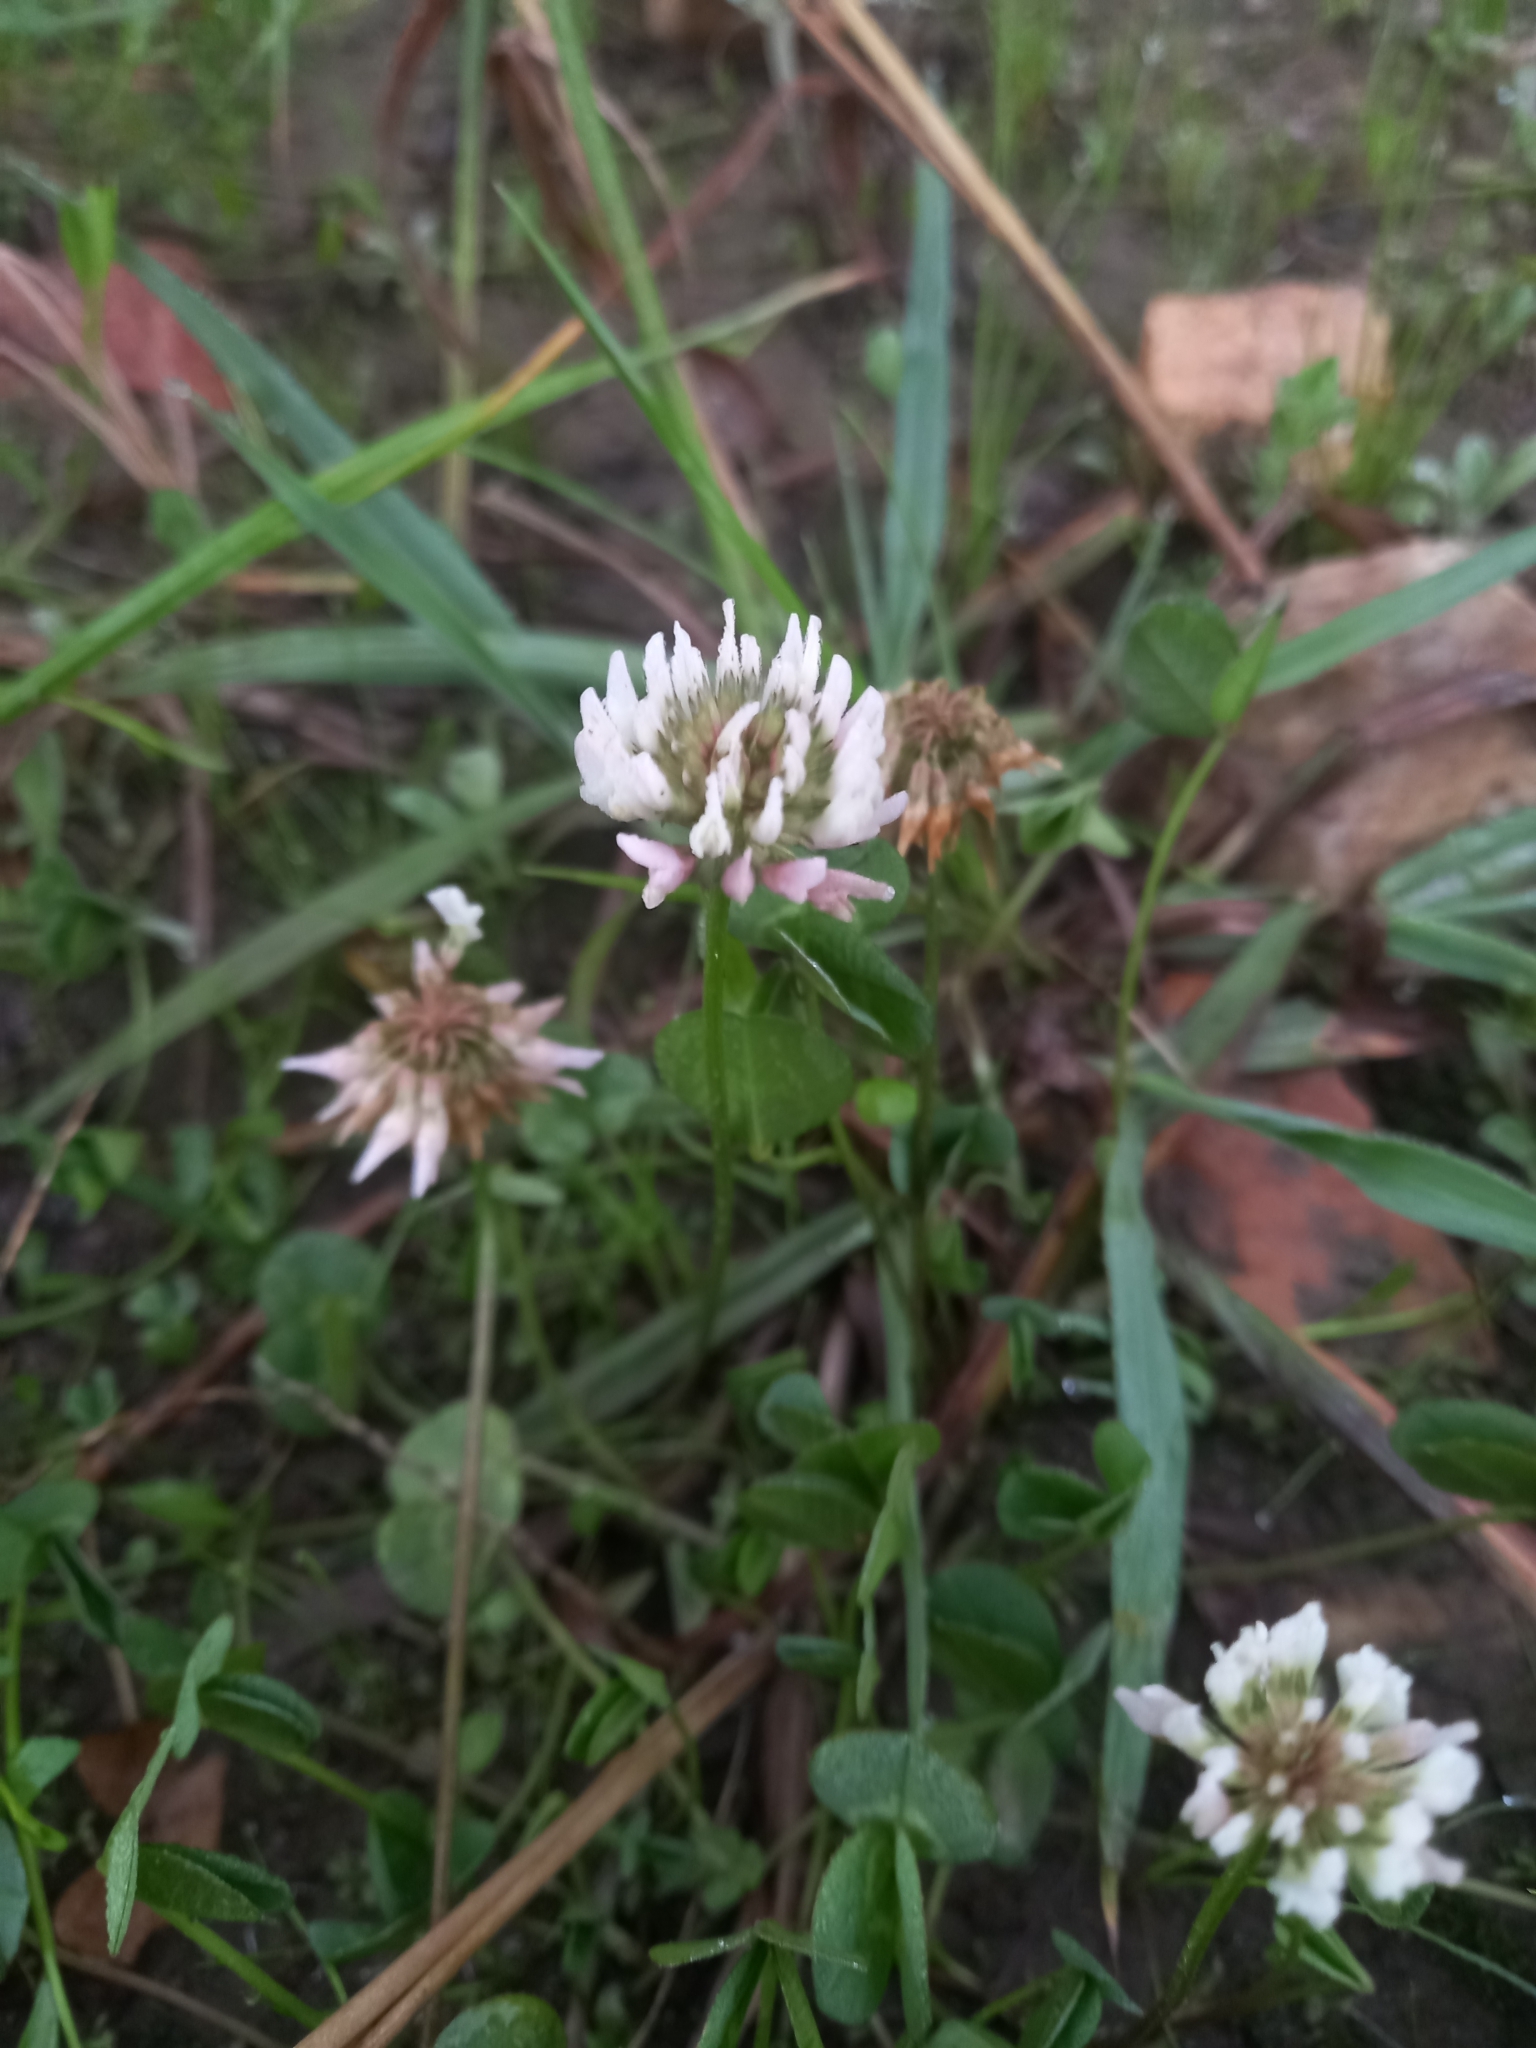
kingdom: Plantae
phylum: Tracheophyta
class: Magnoliopsida
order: Fabales
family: Fabaceae
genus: Trifolium
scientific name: Trifolium repens
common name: White clover
